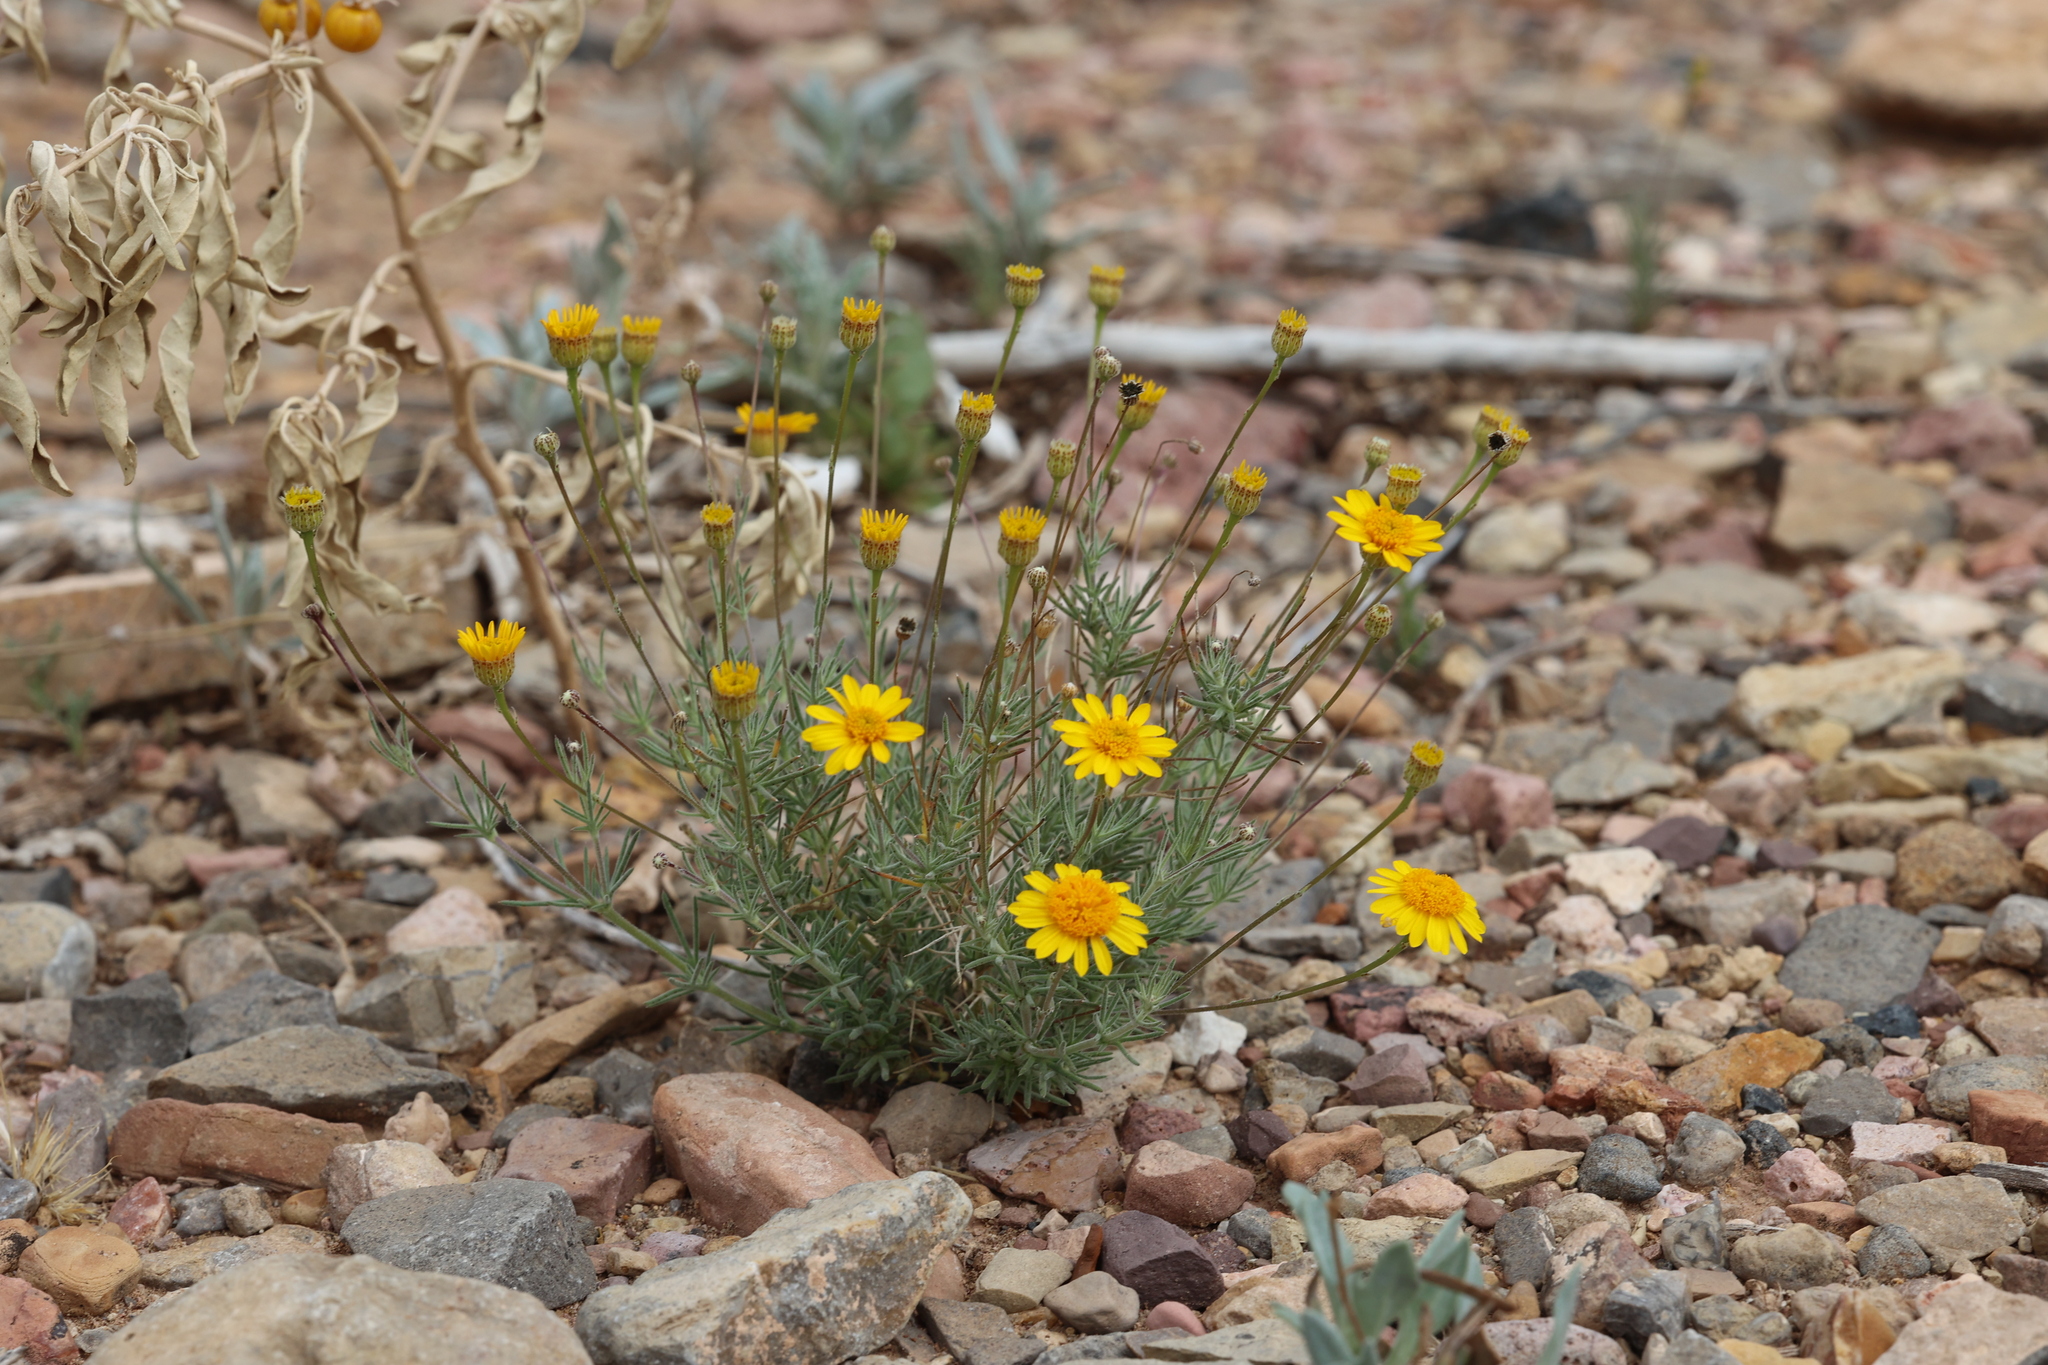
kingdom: Plantae
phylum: Tracheophyta
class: Magnoliopsida
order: Asterales
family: Asteraceae
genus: Thymophylla
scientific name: Thymophylla pentachaeta
